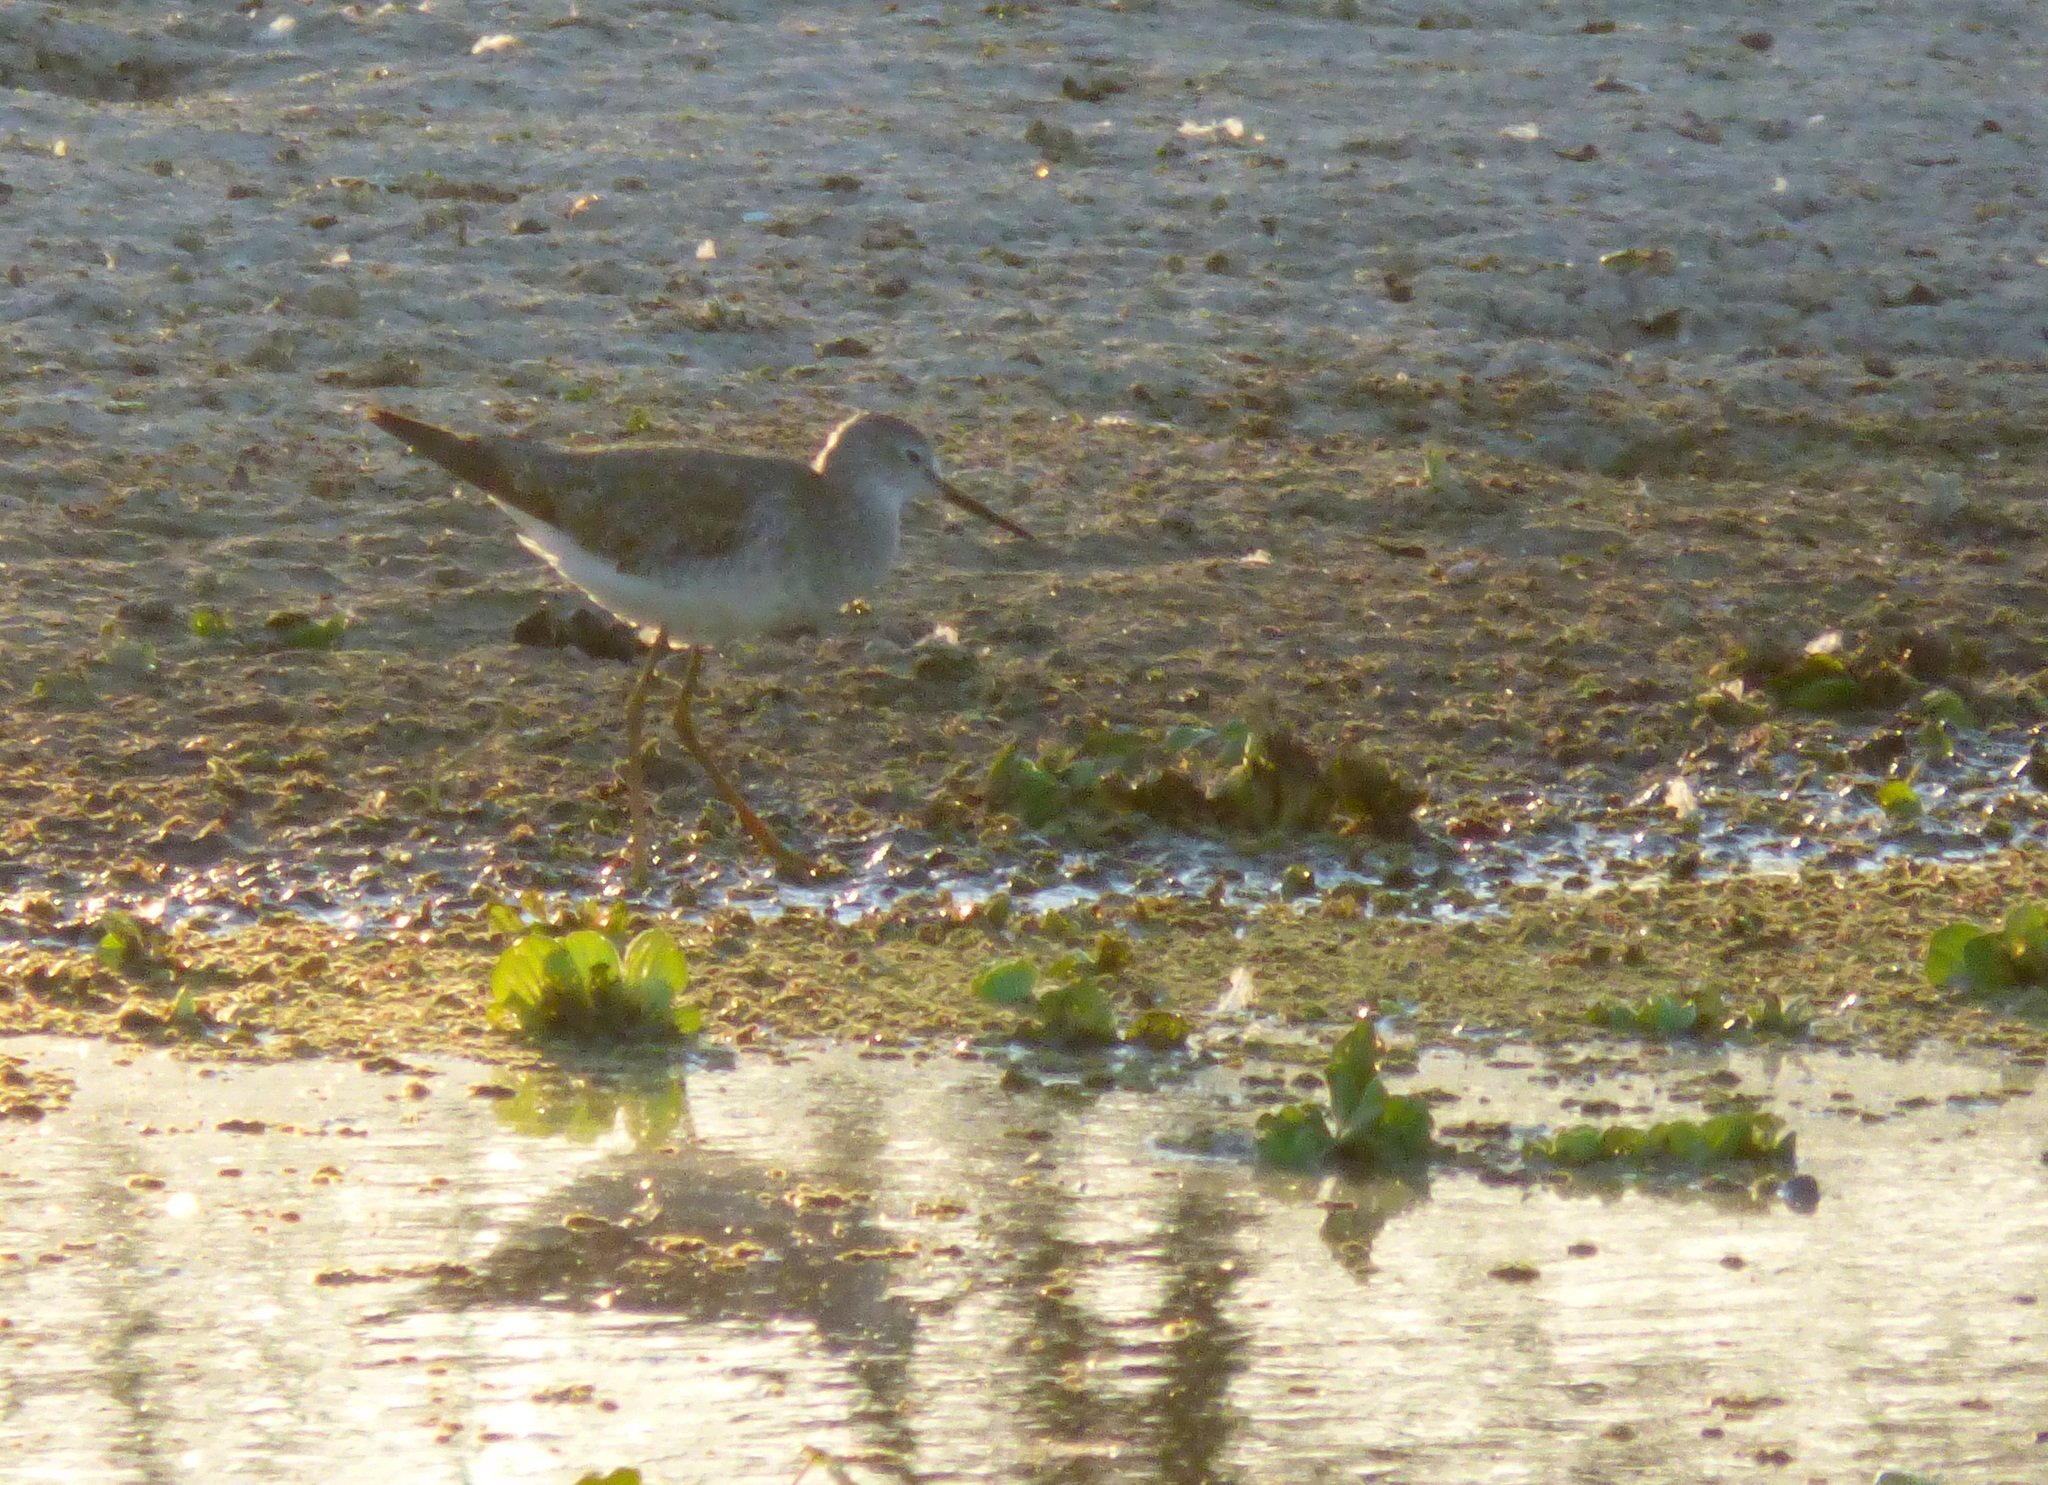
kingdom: Animalia
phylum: Chordata
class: Aves
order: Charadriiformes
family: Scolopacidae
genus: Tringa
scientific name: Tringa flavipes
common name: Lesser yellowlegs
